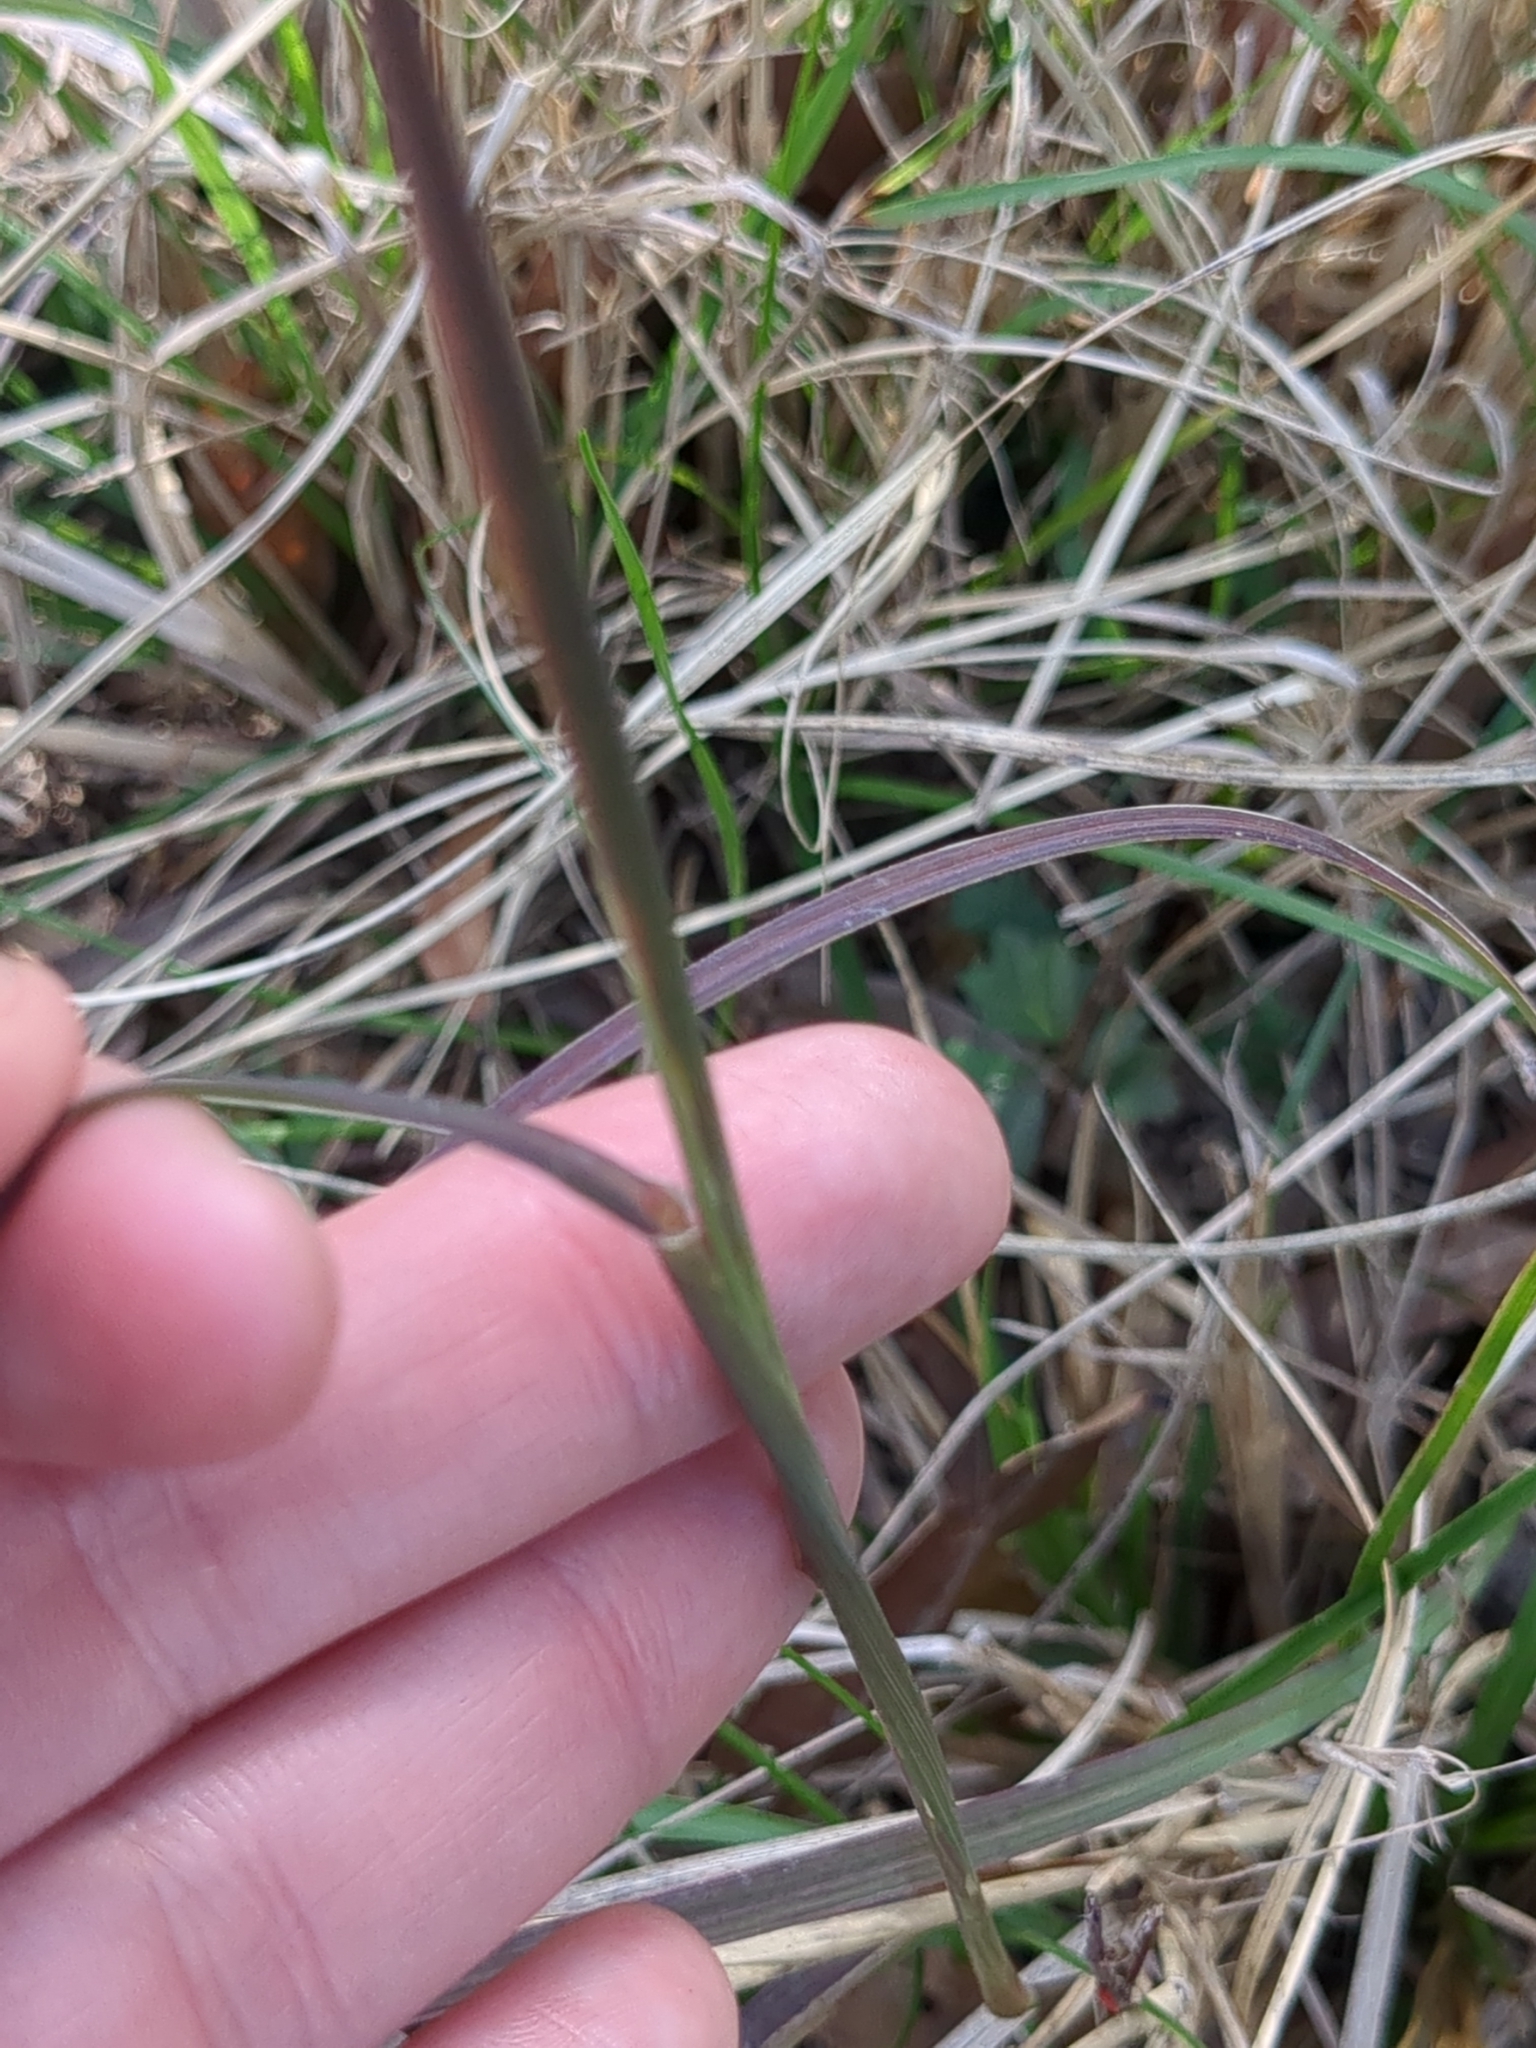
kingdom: Plantae
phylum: Tracheophyta
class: Liliopsida
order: Poales
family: Poaceae
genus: Stapfochloa
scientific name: Stapfochloa canterae
